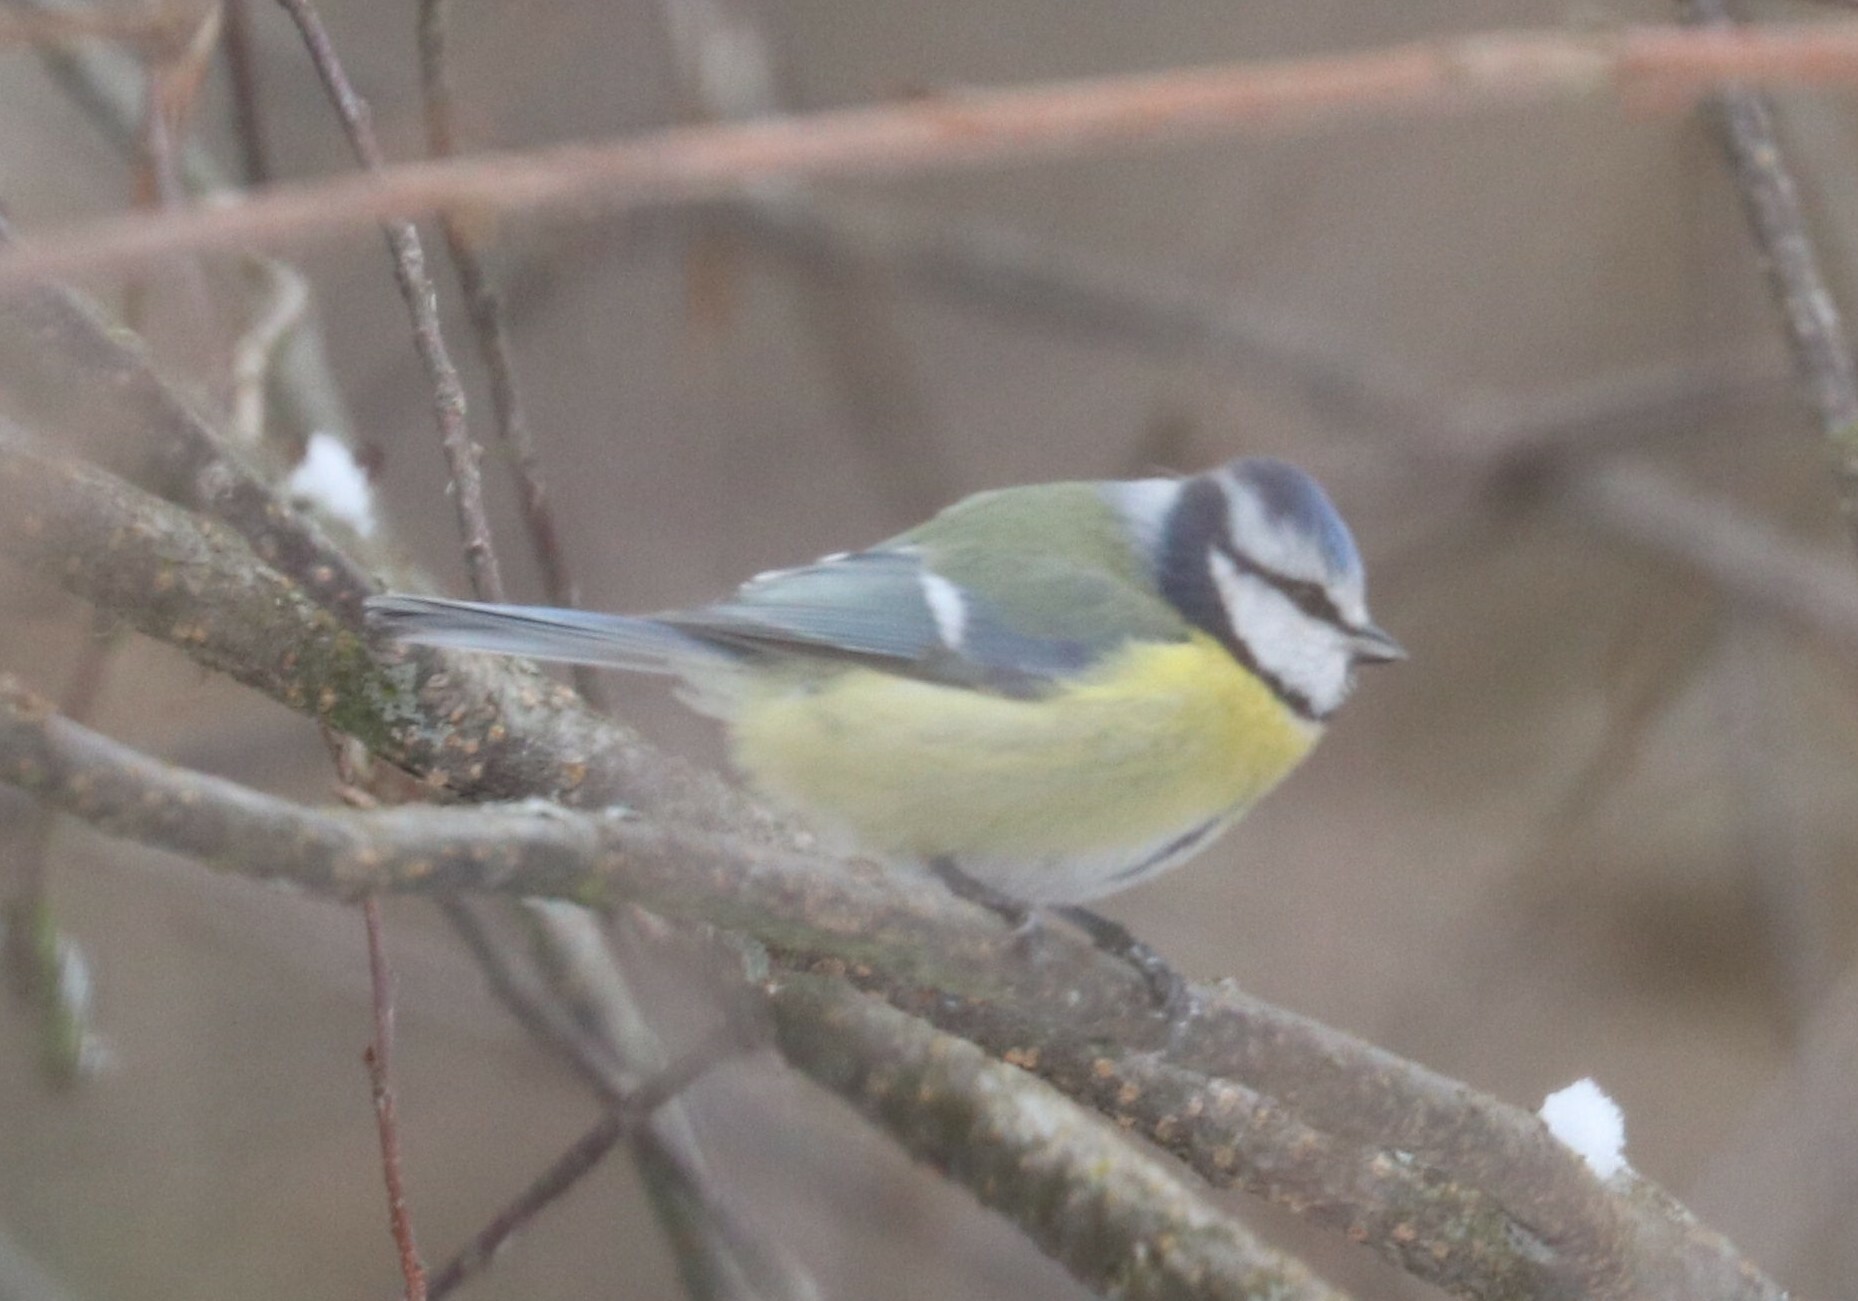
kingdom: Animalia
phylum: Chordata
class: Aves
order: Passeriformes
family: Paridae
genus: Cyanistes
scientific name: Cyanistes caeruleus
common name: Eurasian blue tit
